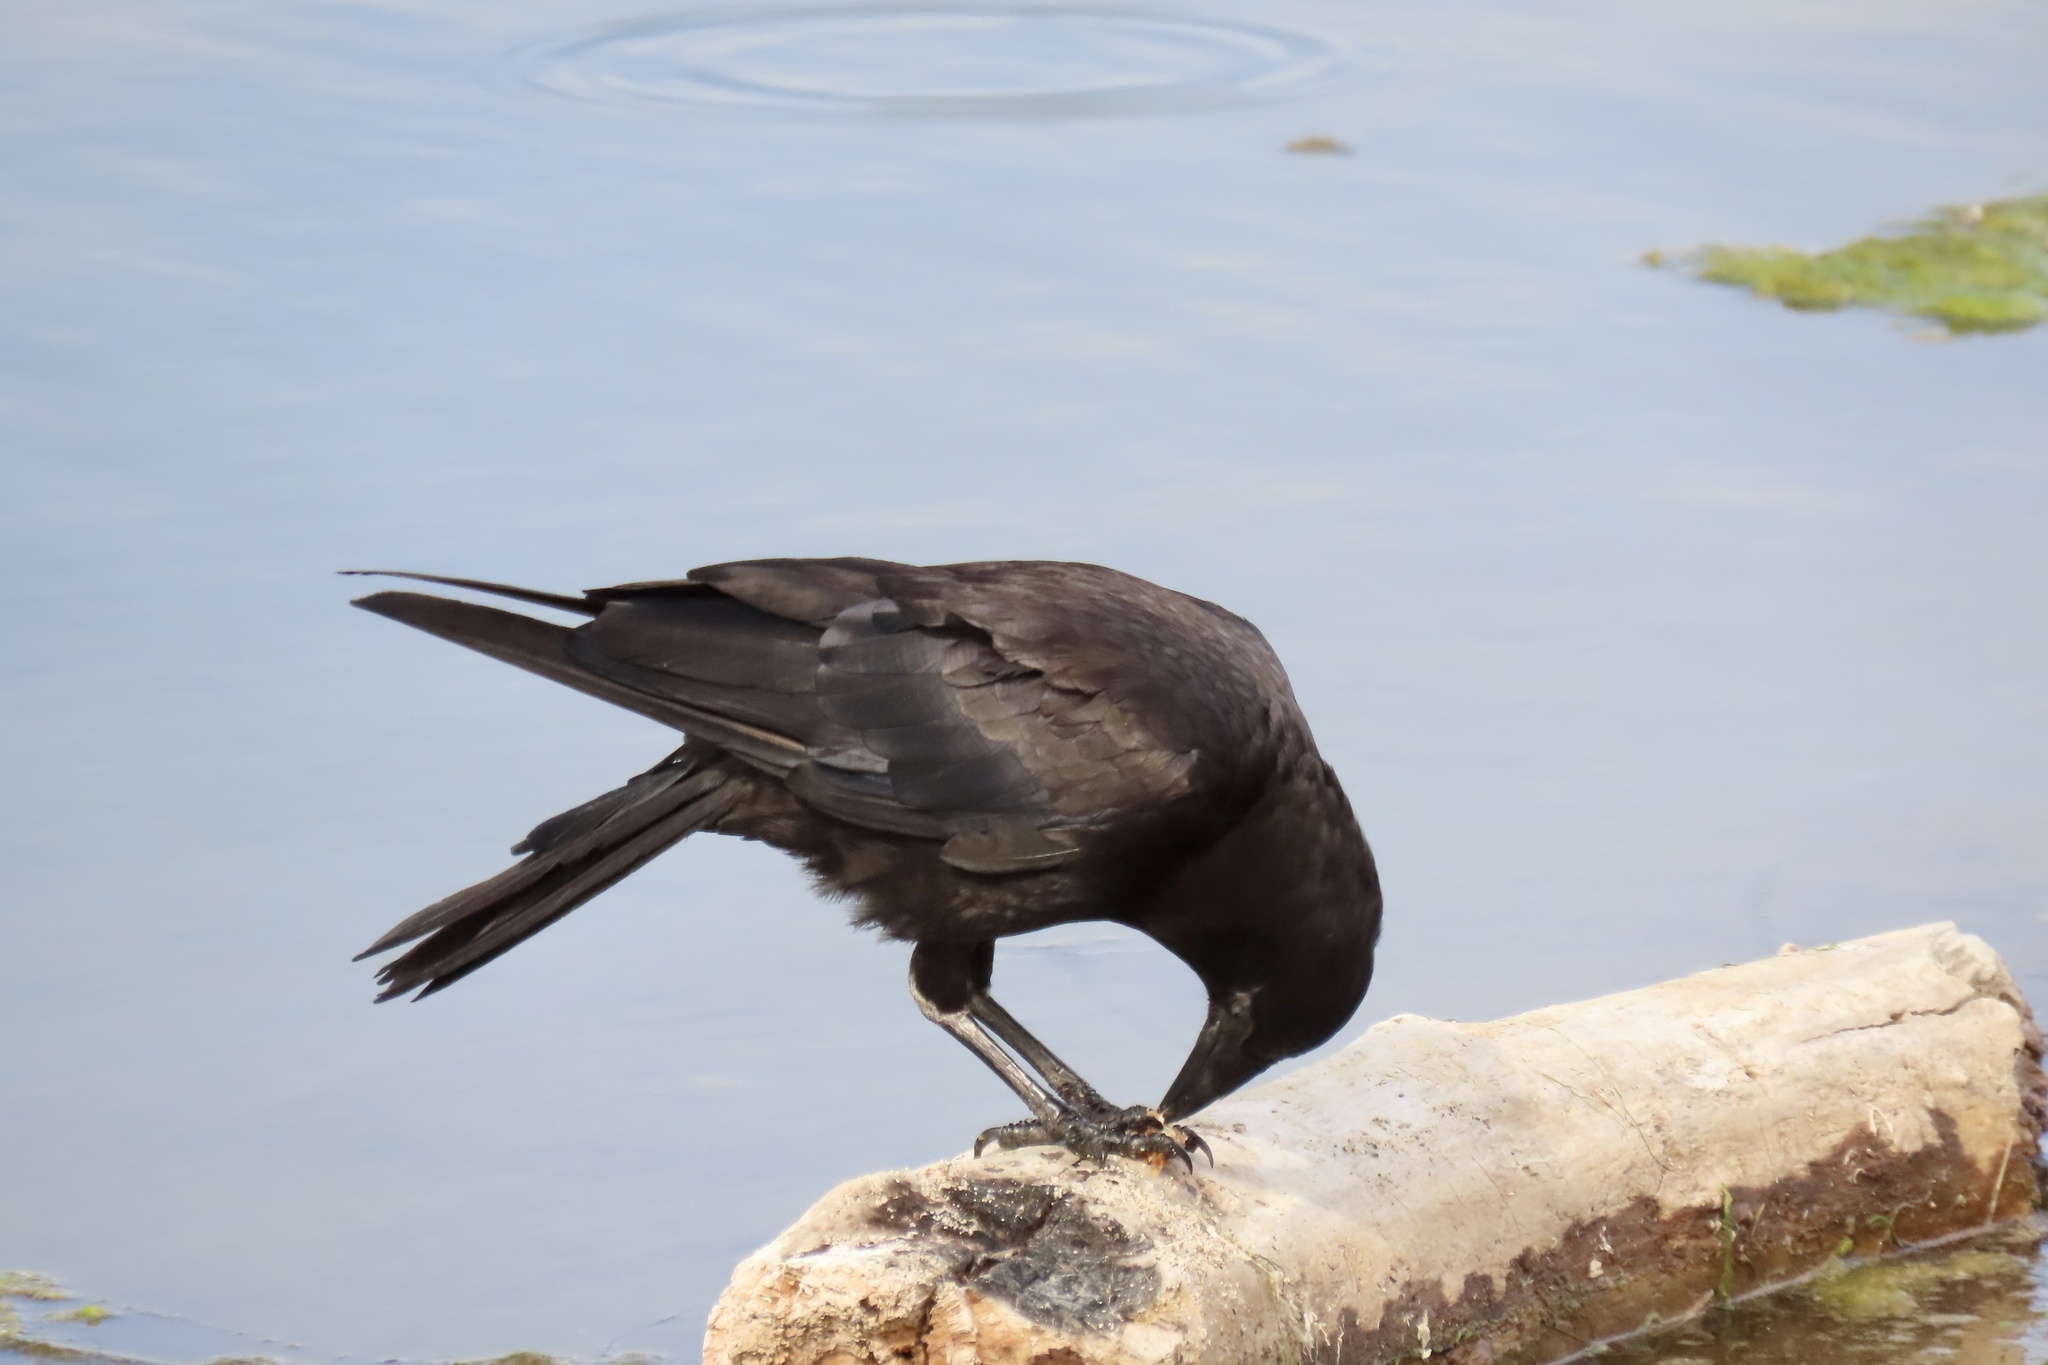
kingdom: Animalia
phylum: Chordata
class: Aves
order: Passeriformes
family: Corvidae
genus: Corvus
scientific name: Corvus brachyrhynchos
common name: American crow
